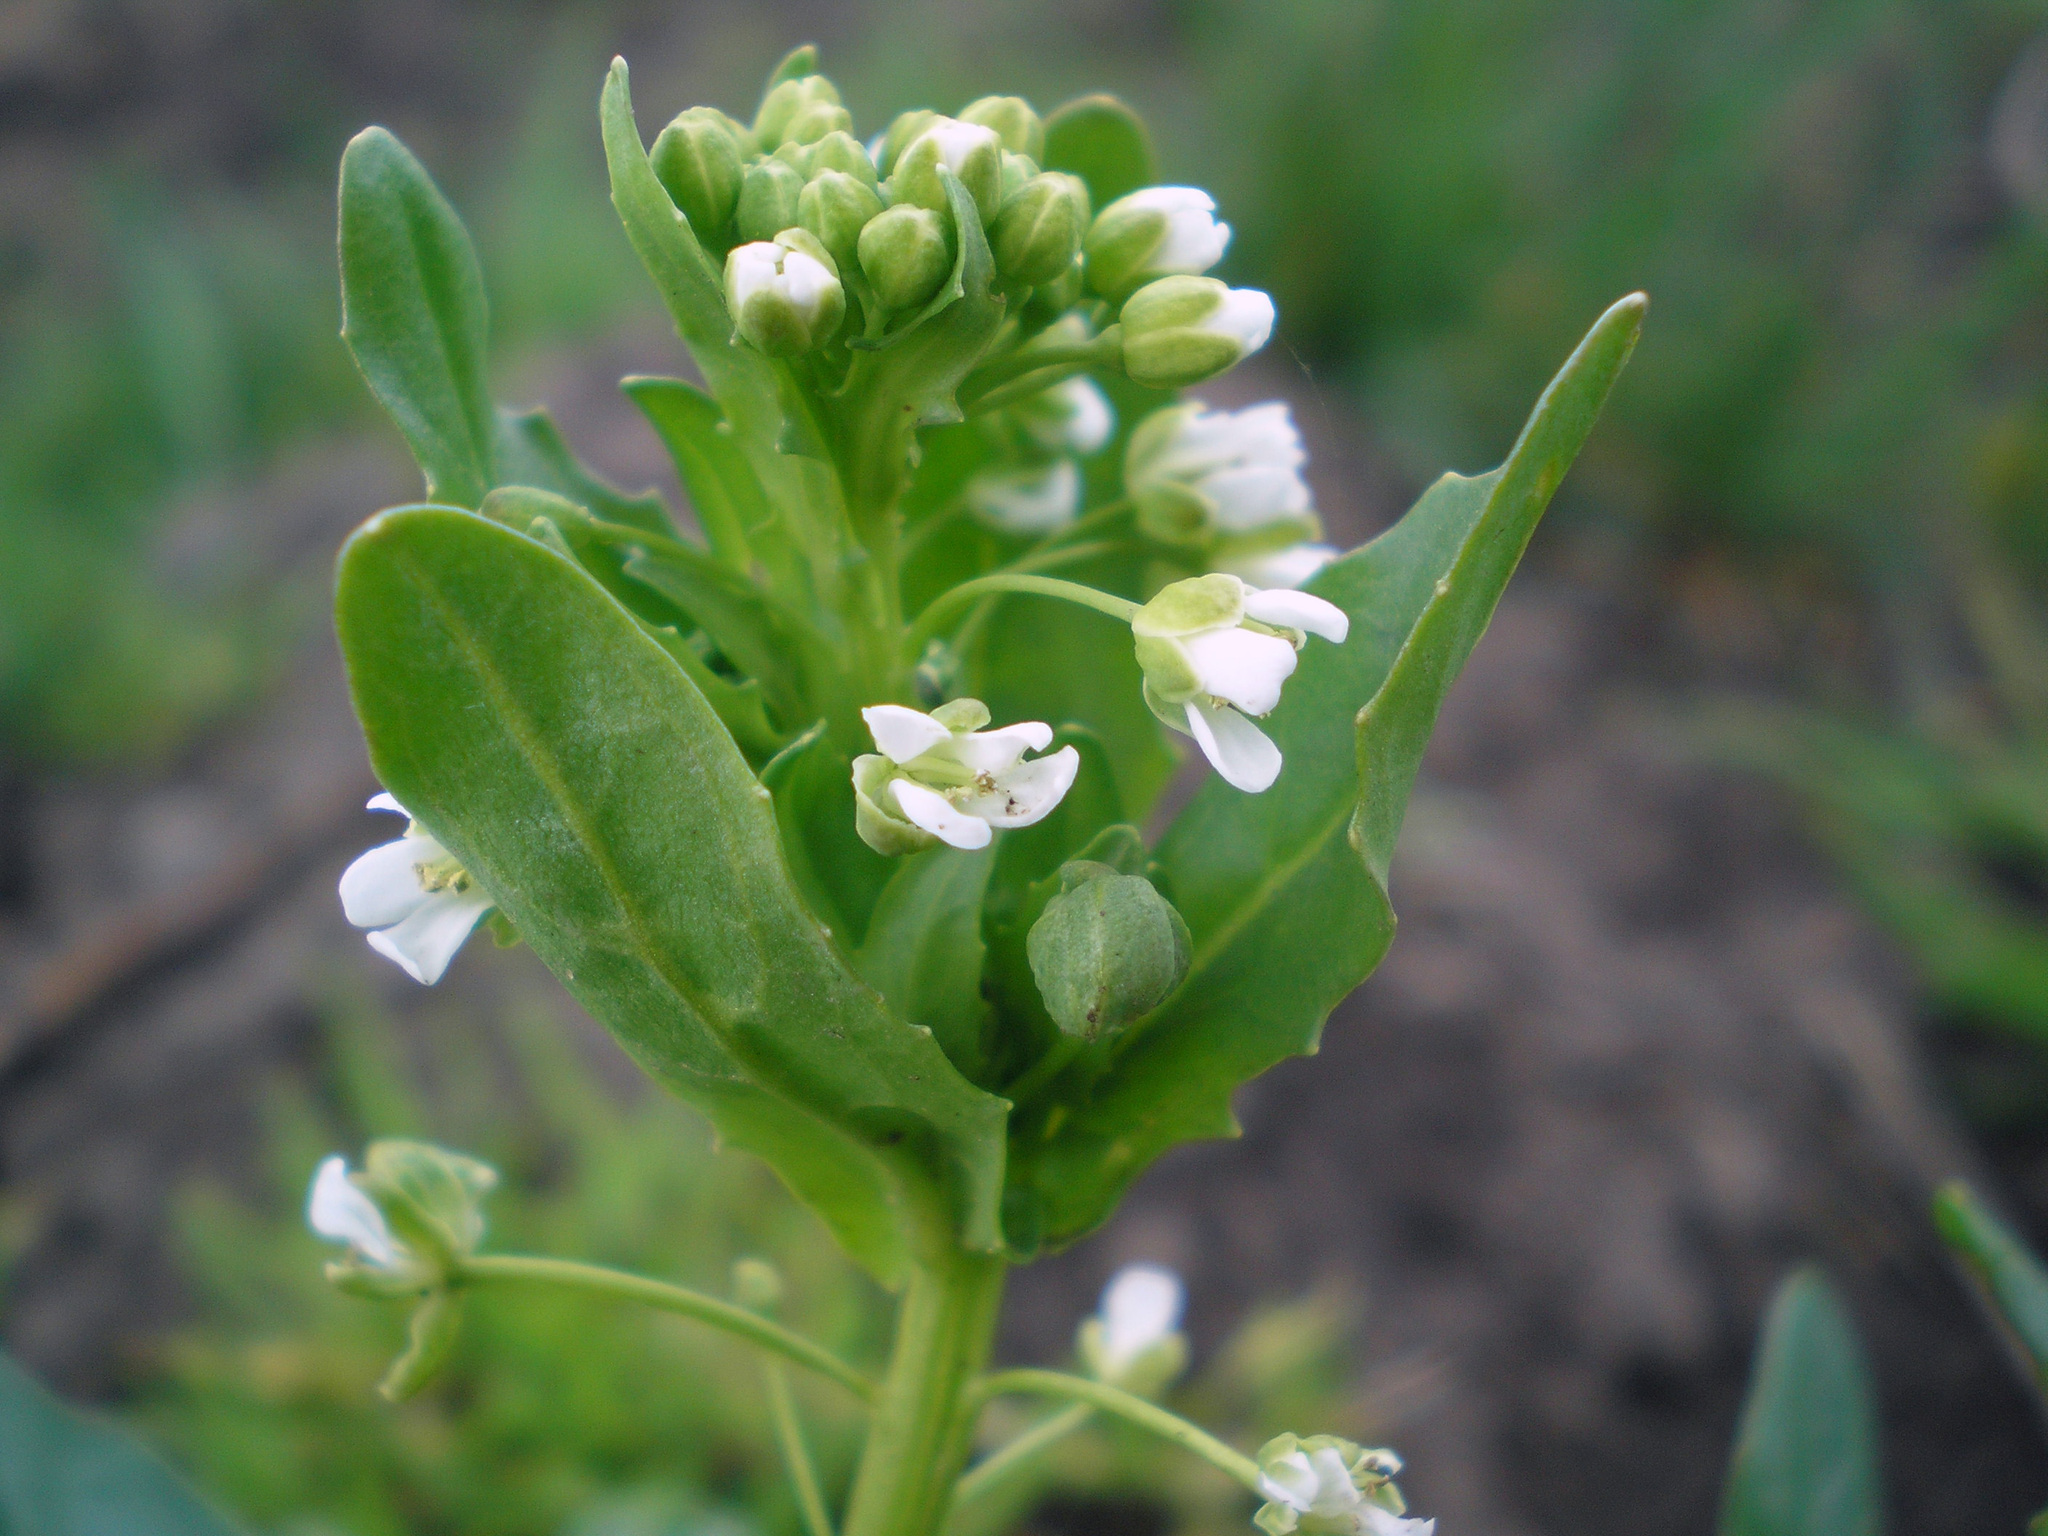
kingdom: Plantae
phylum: Tracheophyta
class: Magnoliopsida
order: Brassicales
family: Brassicaceae
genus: Thlaspi
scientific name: Thlaspi arvense
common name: Field pennycress
